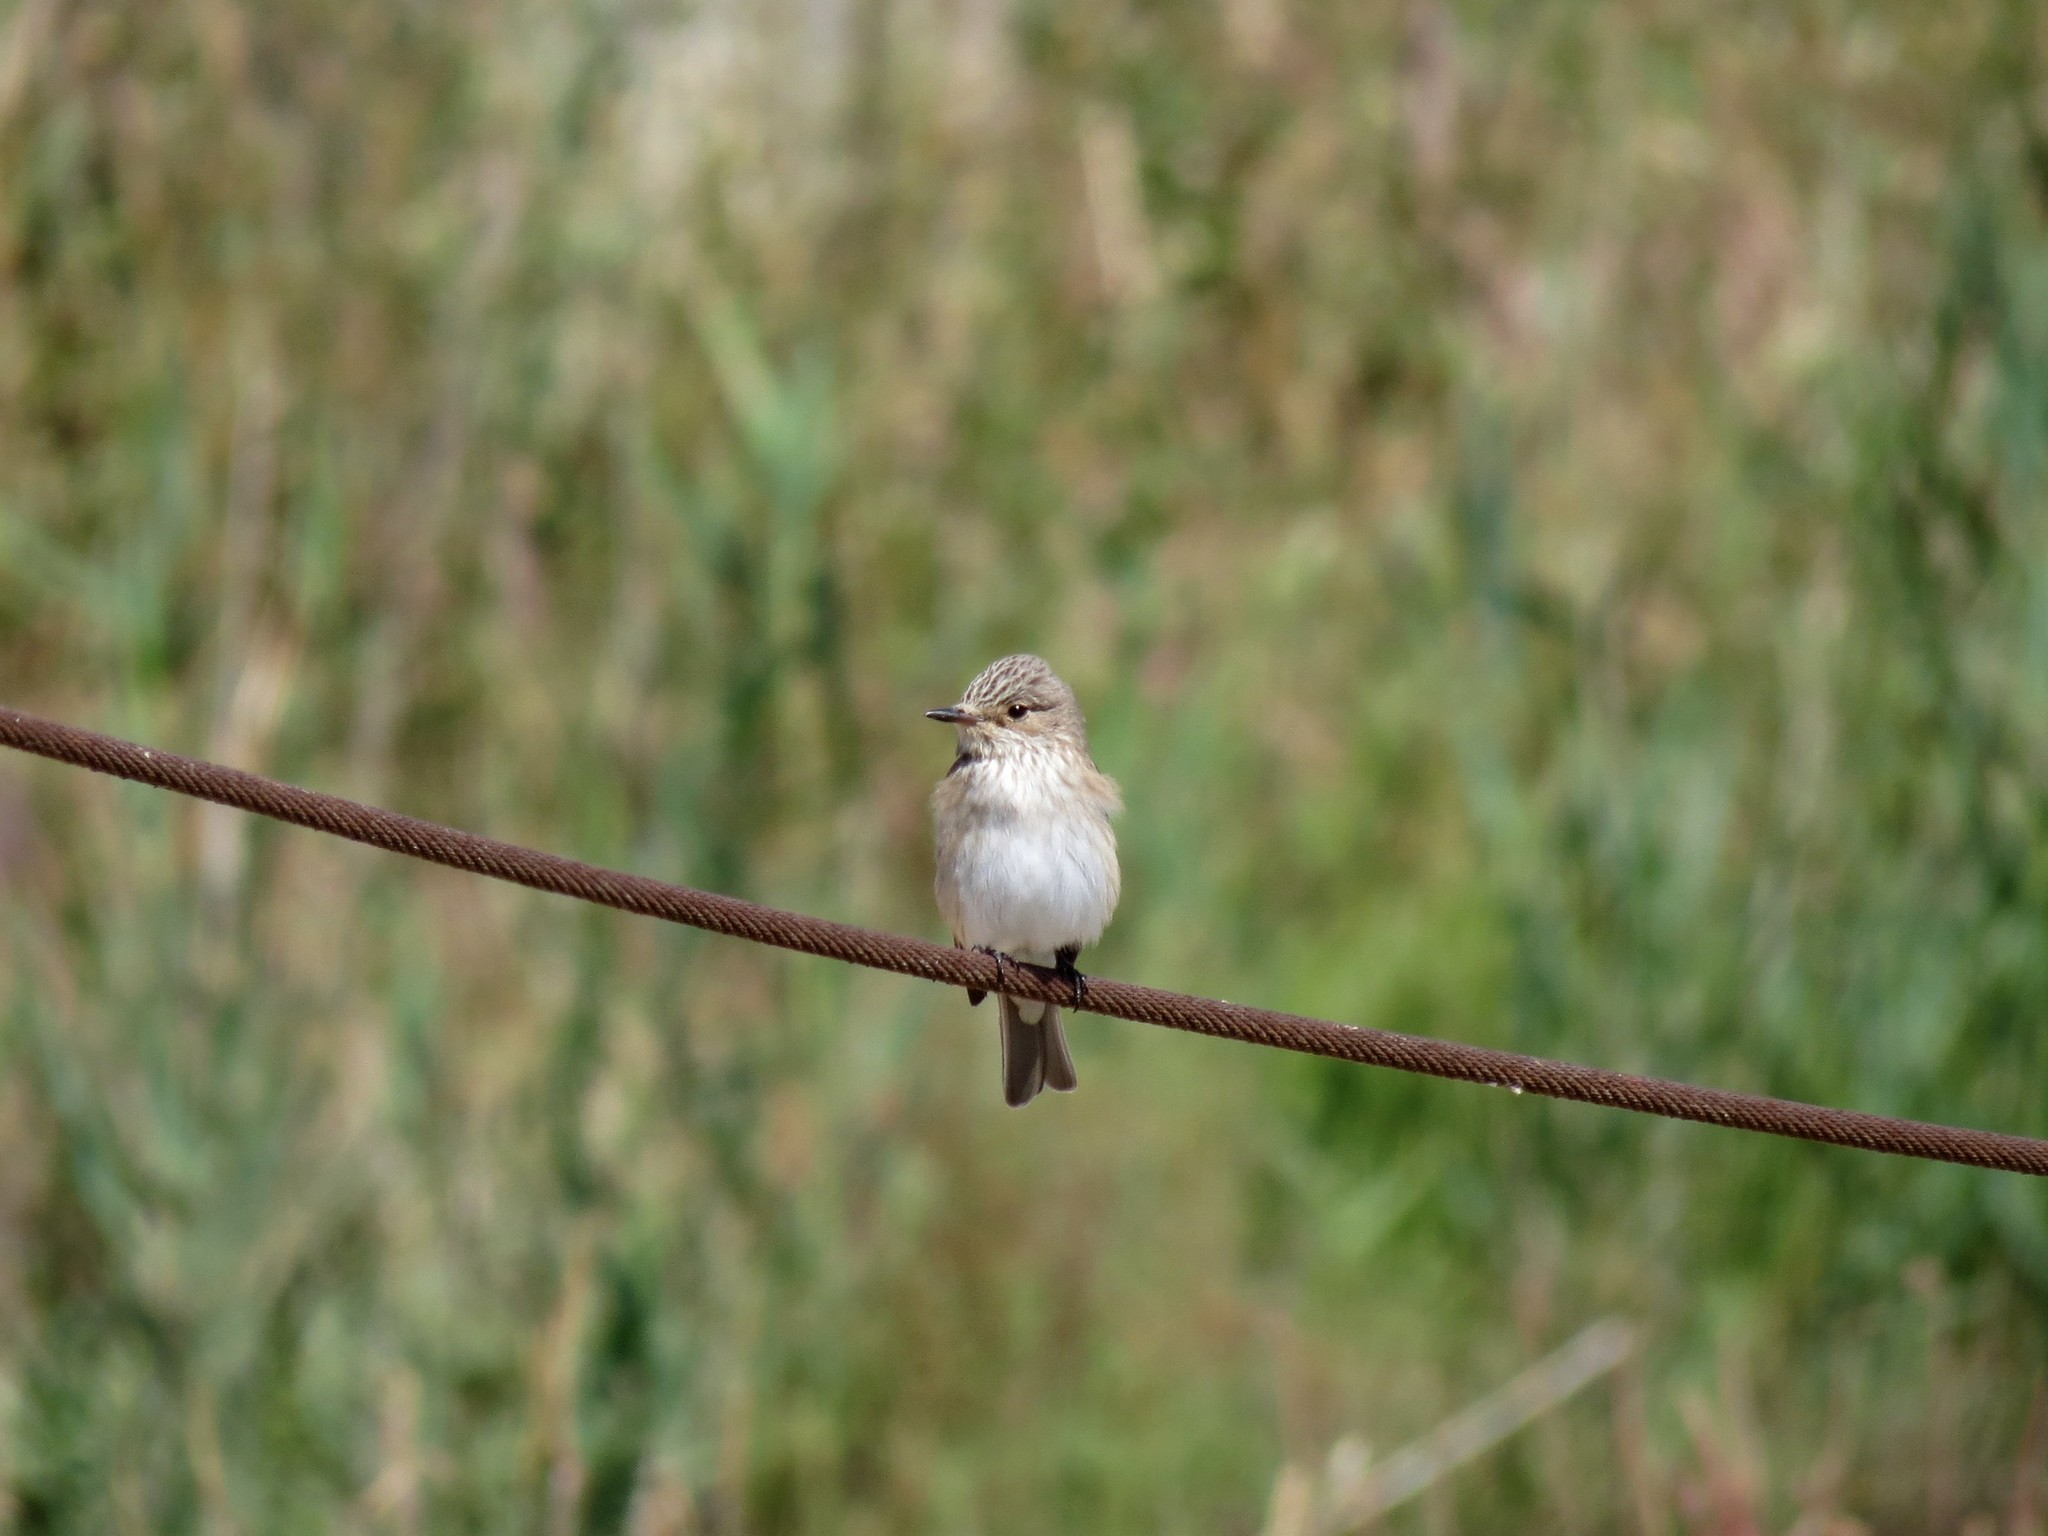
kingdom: Animalia
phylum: Chordata
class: Aves
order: Passeriformes
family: Muscicapidae
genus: Muscicapa
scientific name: Muscicapa striata
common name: Spotted flycatcher
